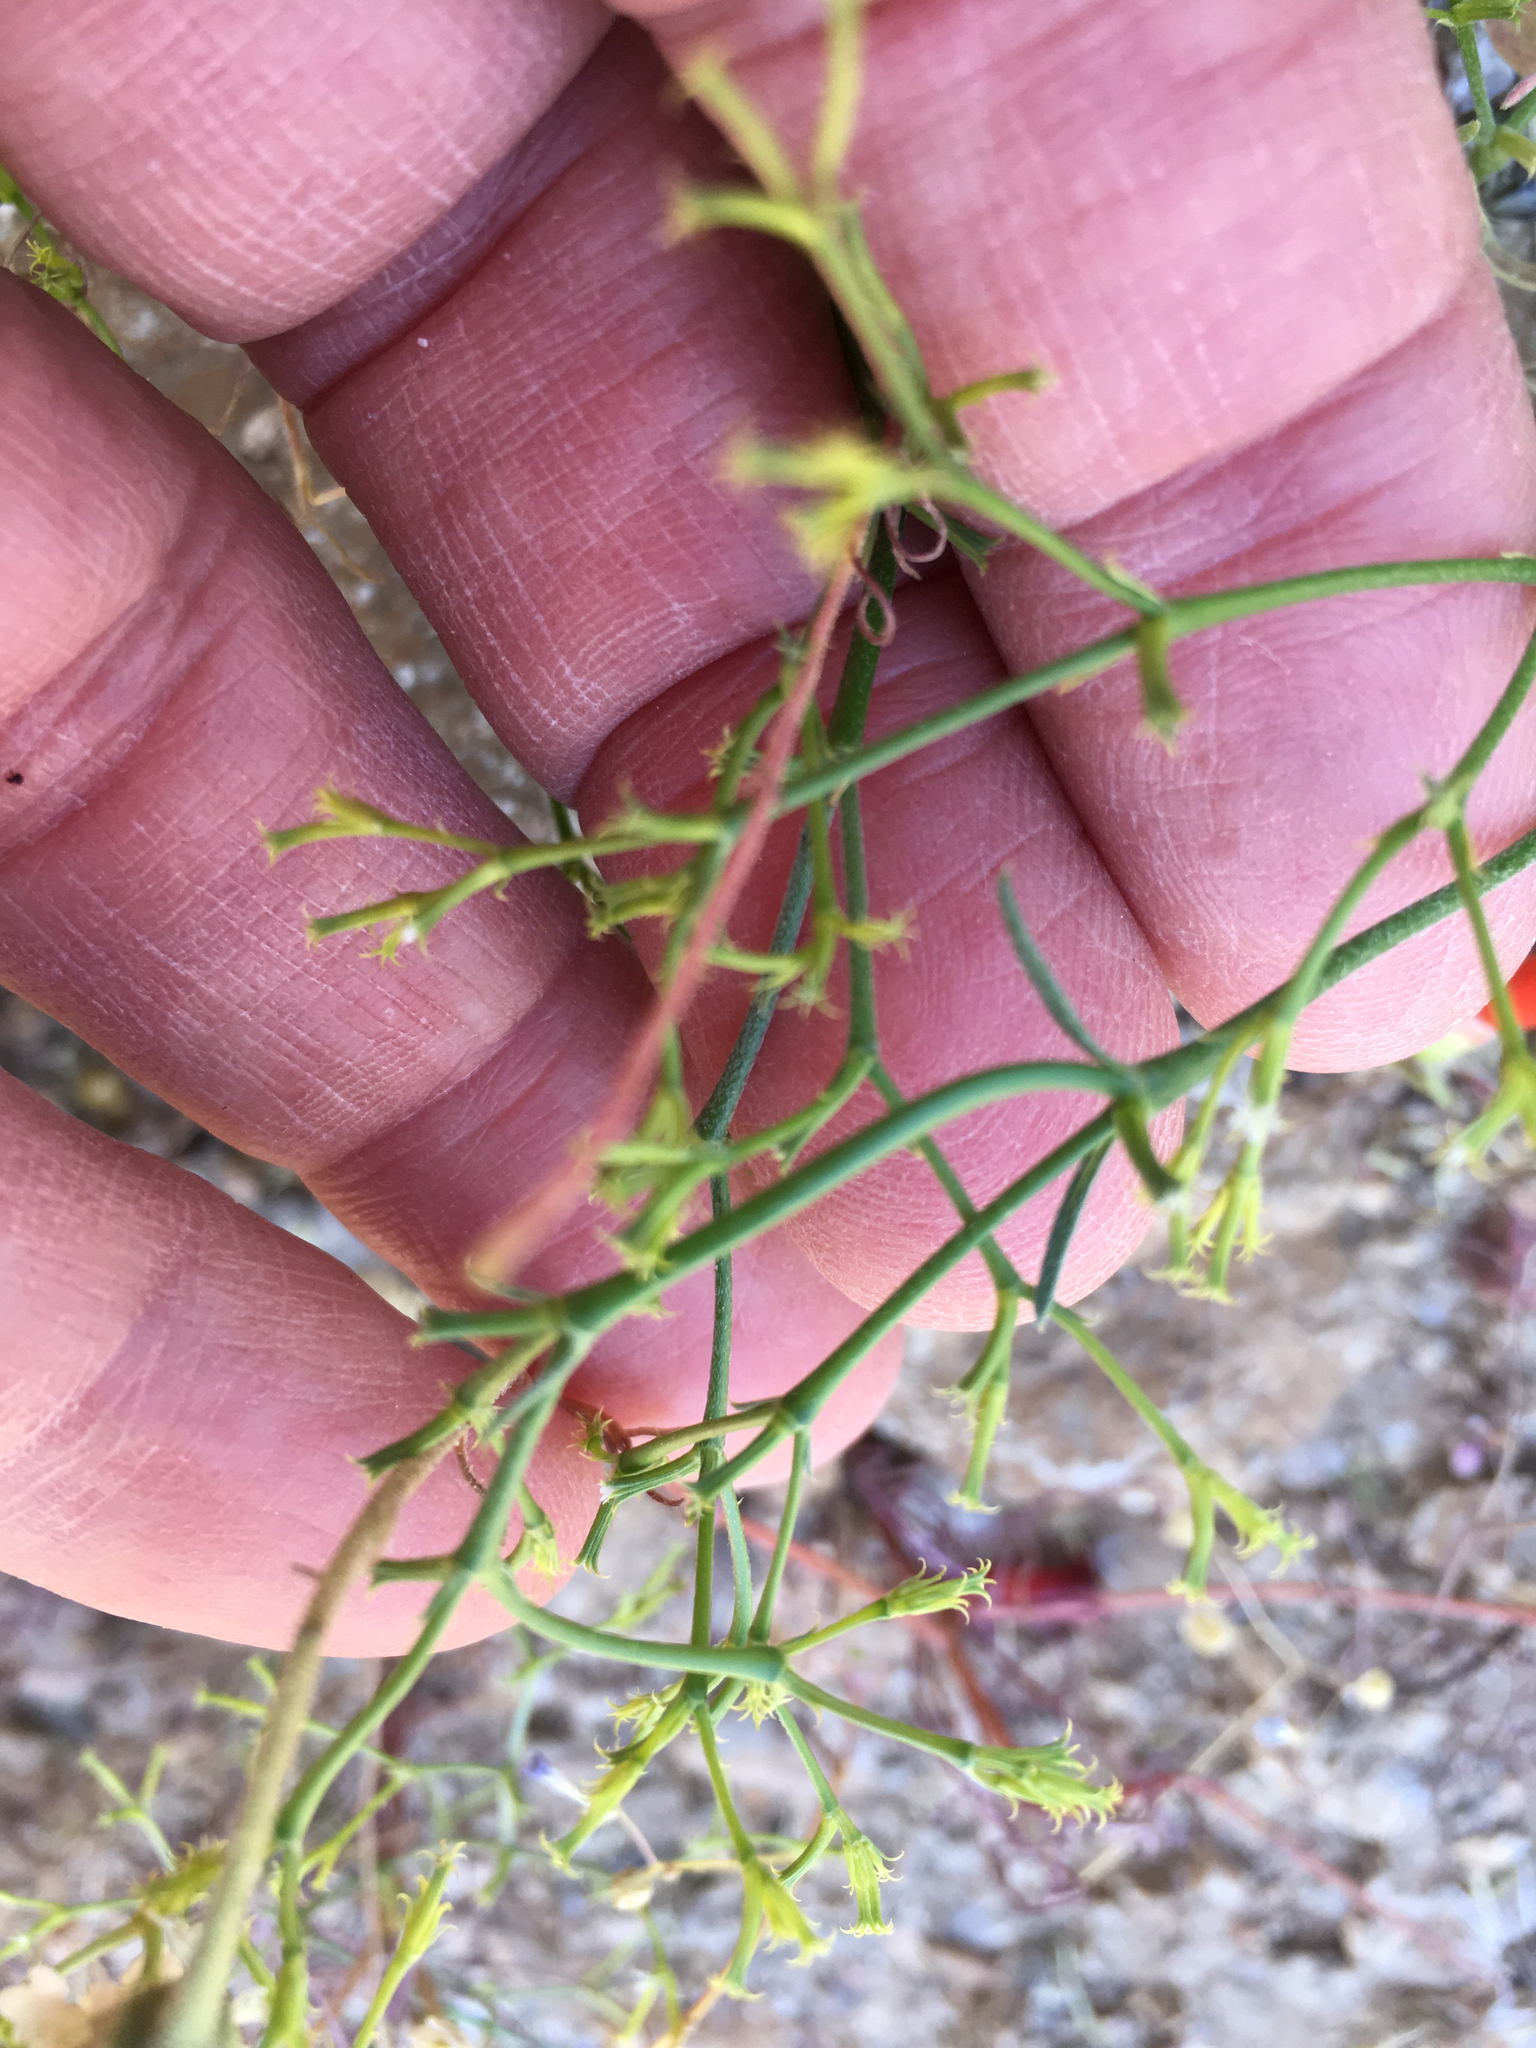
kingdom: Plantae
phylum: Tracheophyta
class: Magnoliopsida
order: Caryophyllales
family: Polygonaceae
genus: Chorizanthe
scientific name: Chorizanthe brevicornu
